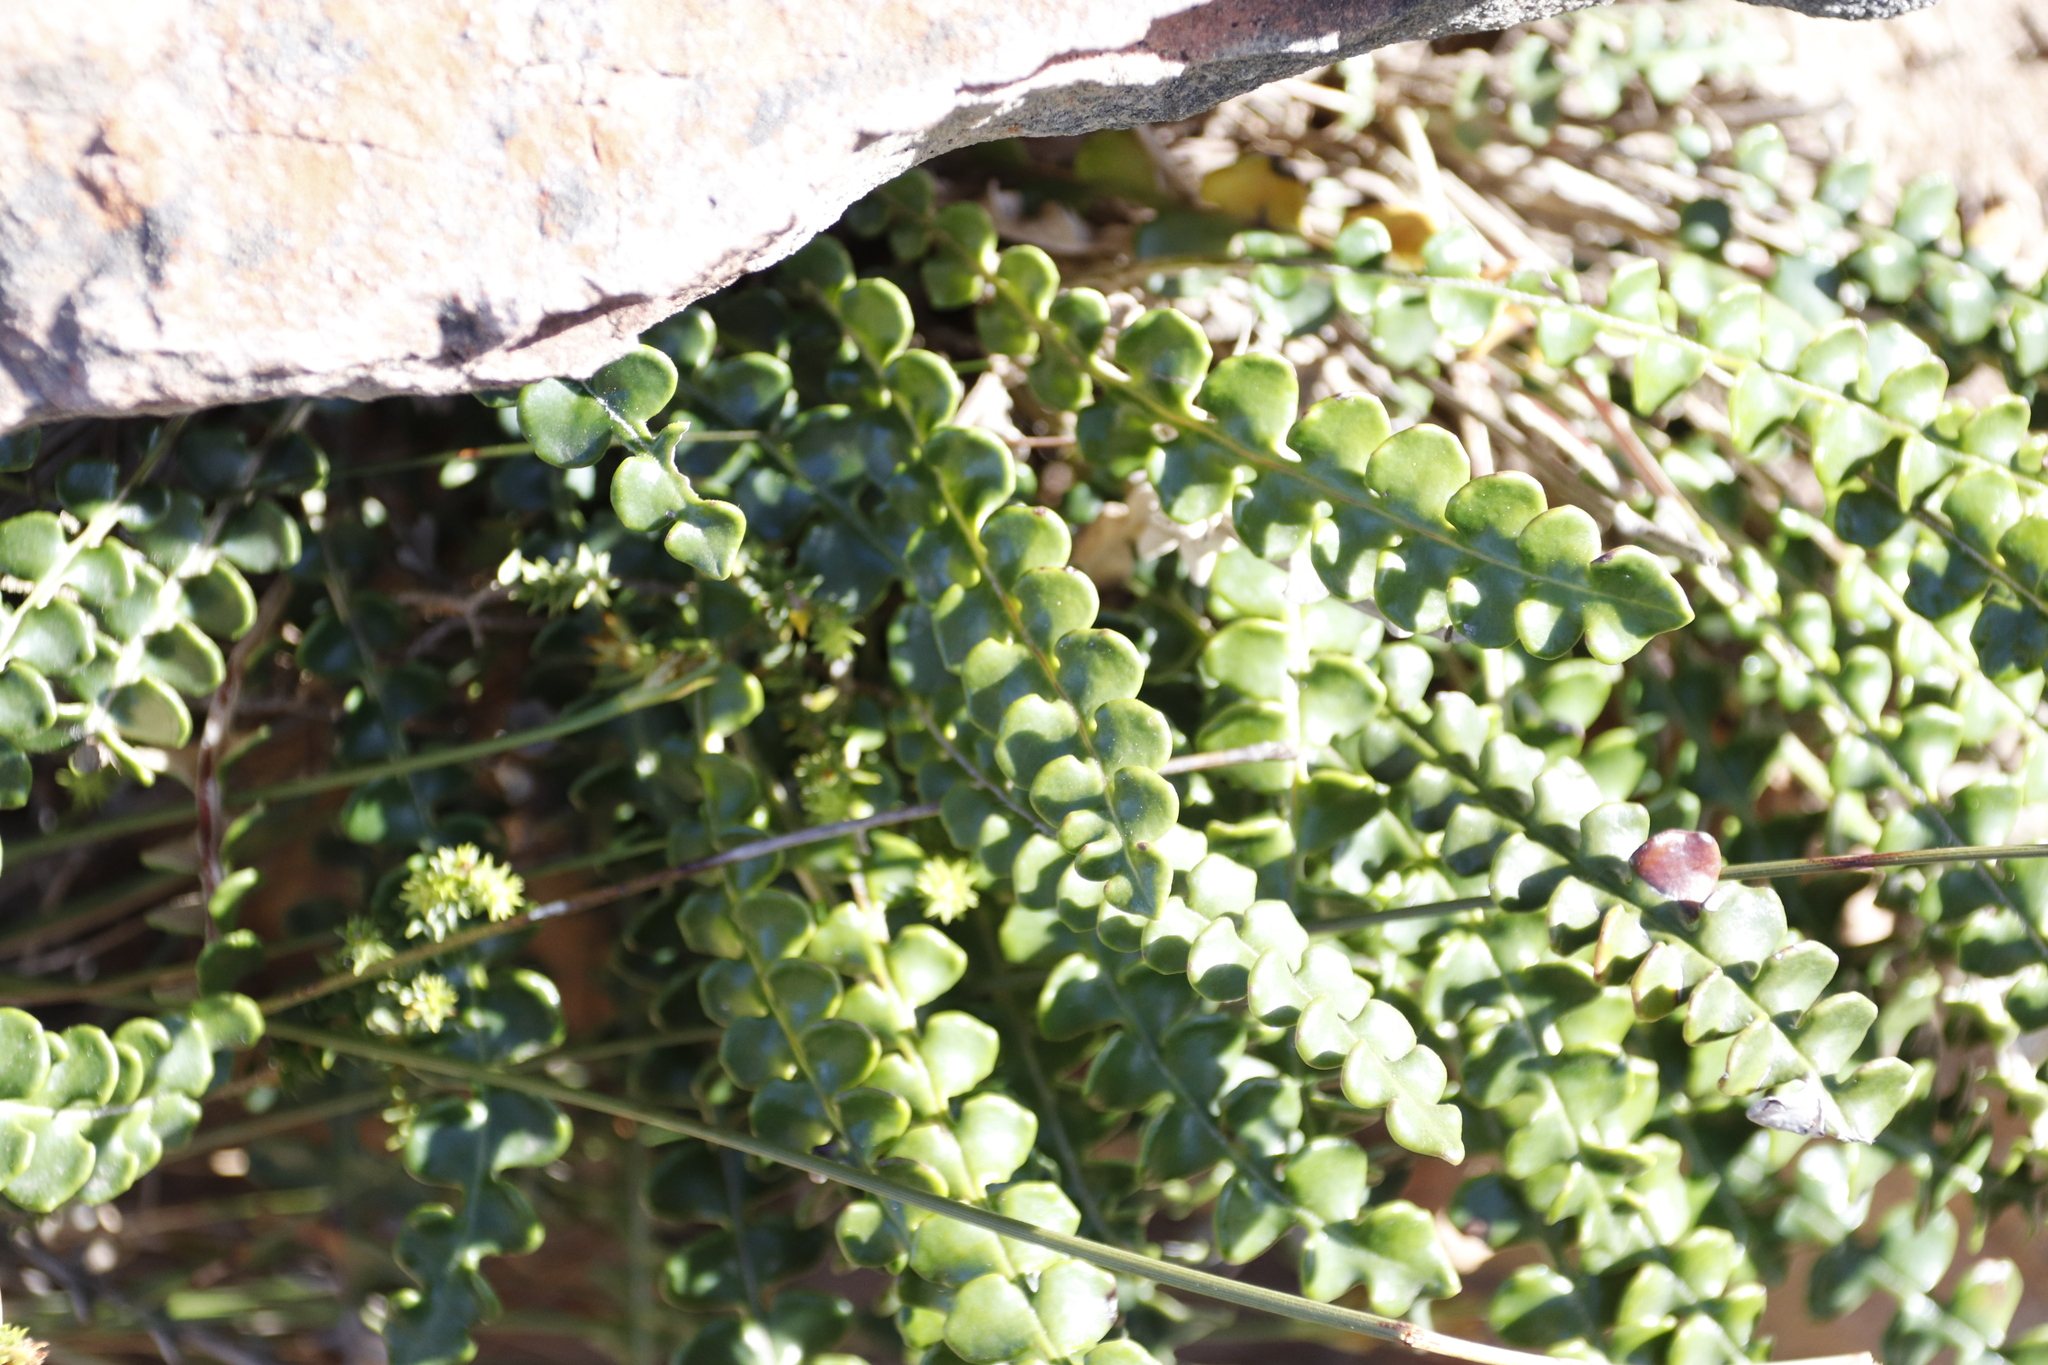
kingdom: Plantae
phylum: Tracheophyta
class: Magnoliopsida
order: Asterales
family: Asteraceae
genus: Gerbera
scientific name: Gerbera linnaei
